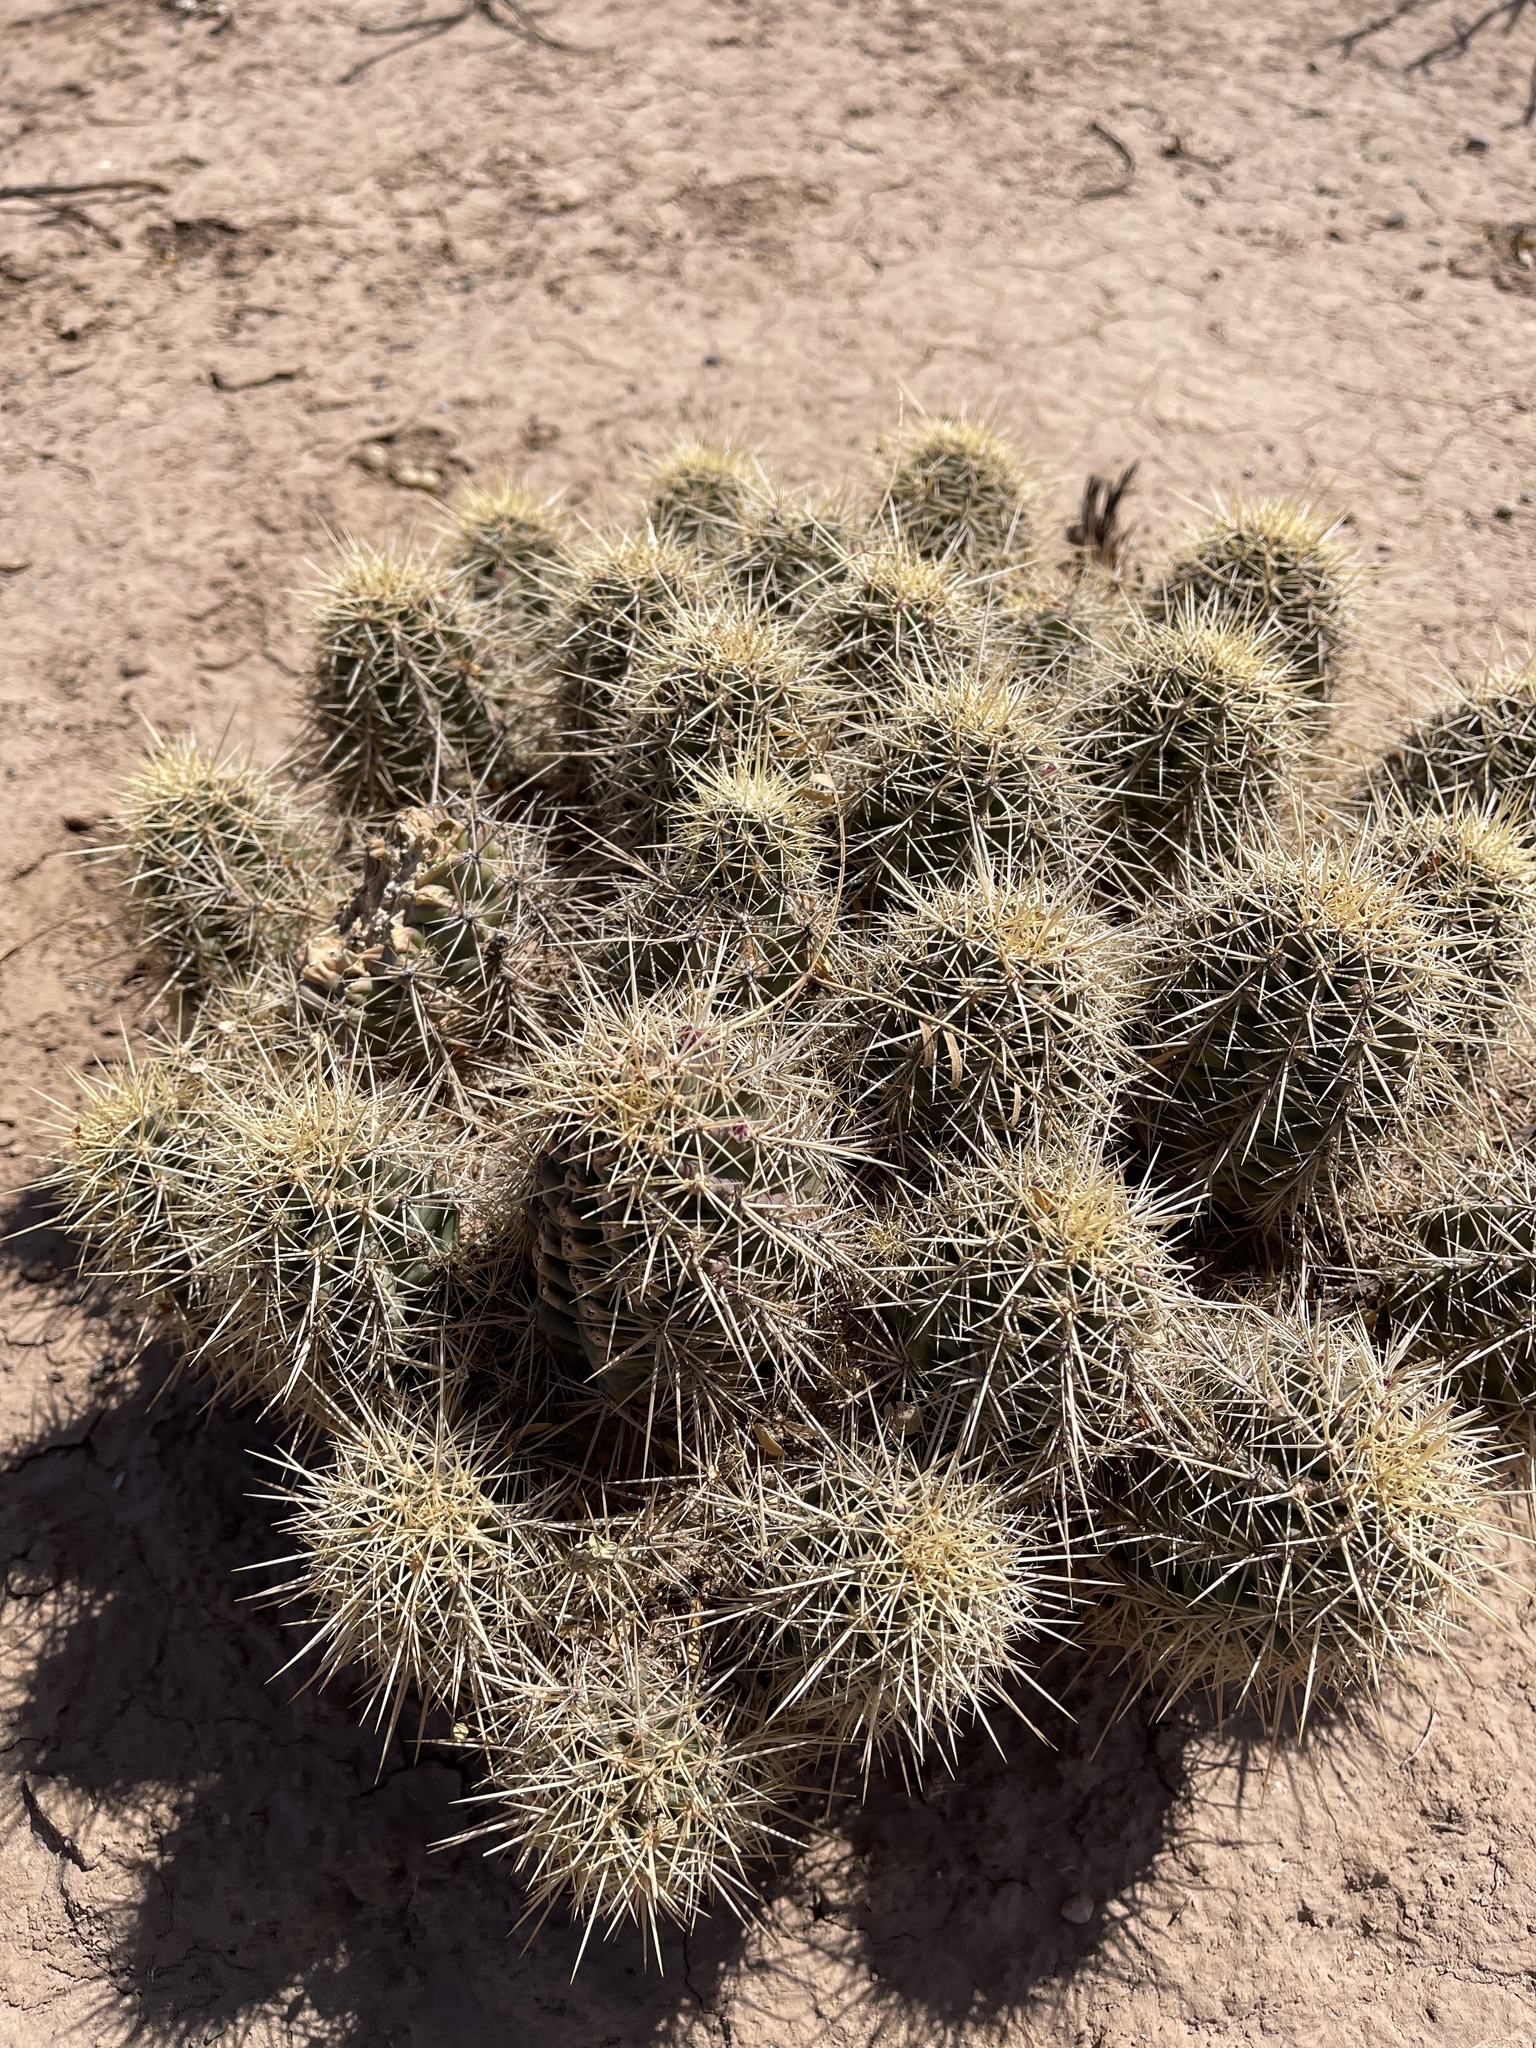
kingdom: Plantae
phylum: Tracheophyta
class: Magnoliopsida
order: Caryophyllales
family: Cactaceae
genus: Echinocereus
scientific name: Echinocereus coccineus
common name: Scarlet hedgehog cactus
